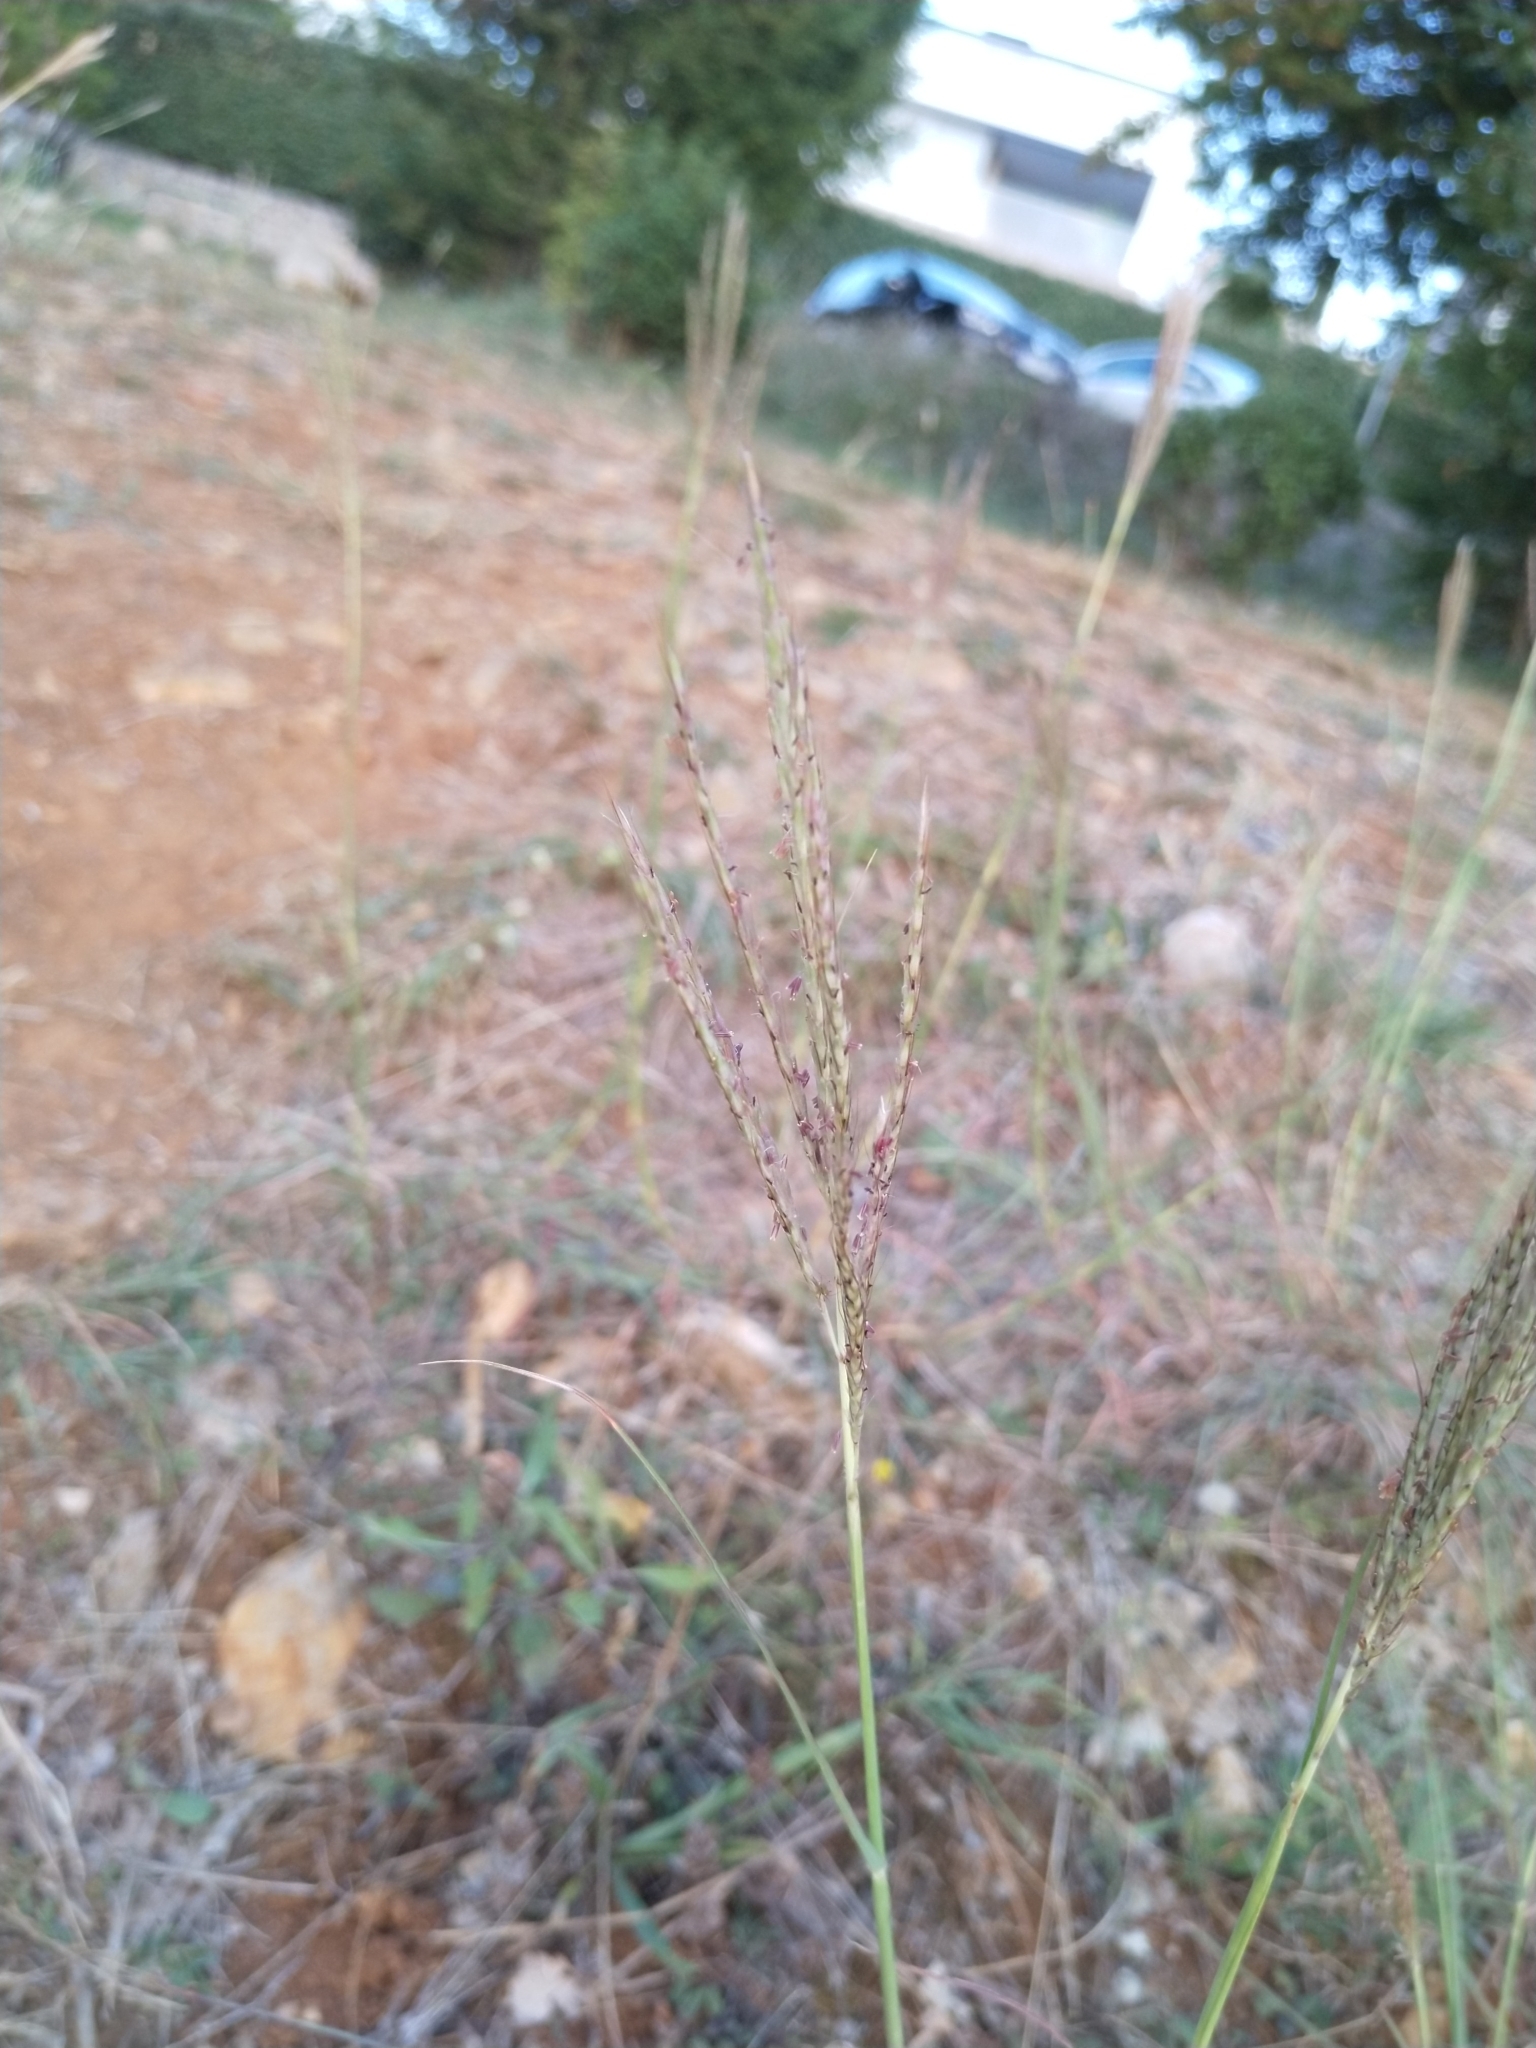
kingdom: Plantae
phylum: Tracheophyta
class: Liliopsida
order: Poales
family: Poaceae
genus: Bothriochloa
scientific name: Bothriochloa ischaemum
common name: Yellow bluestem
